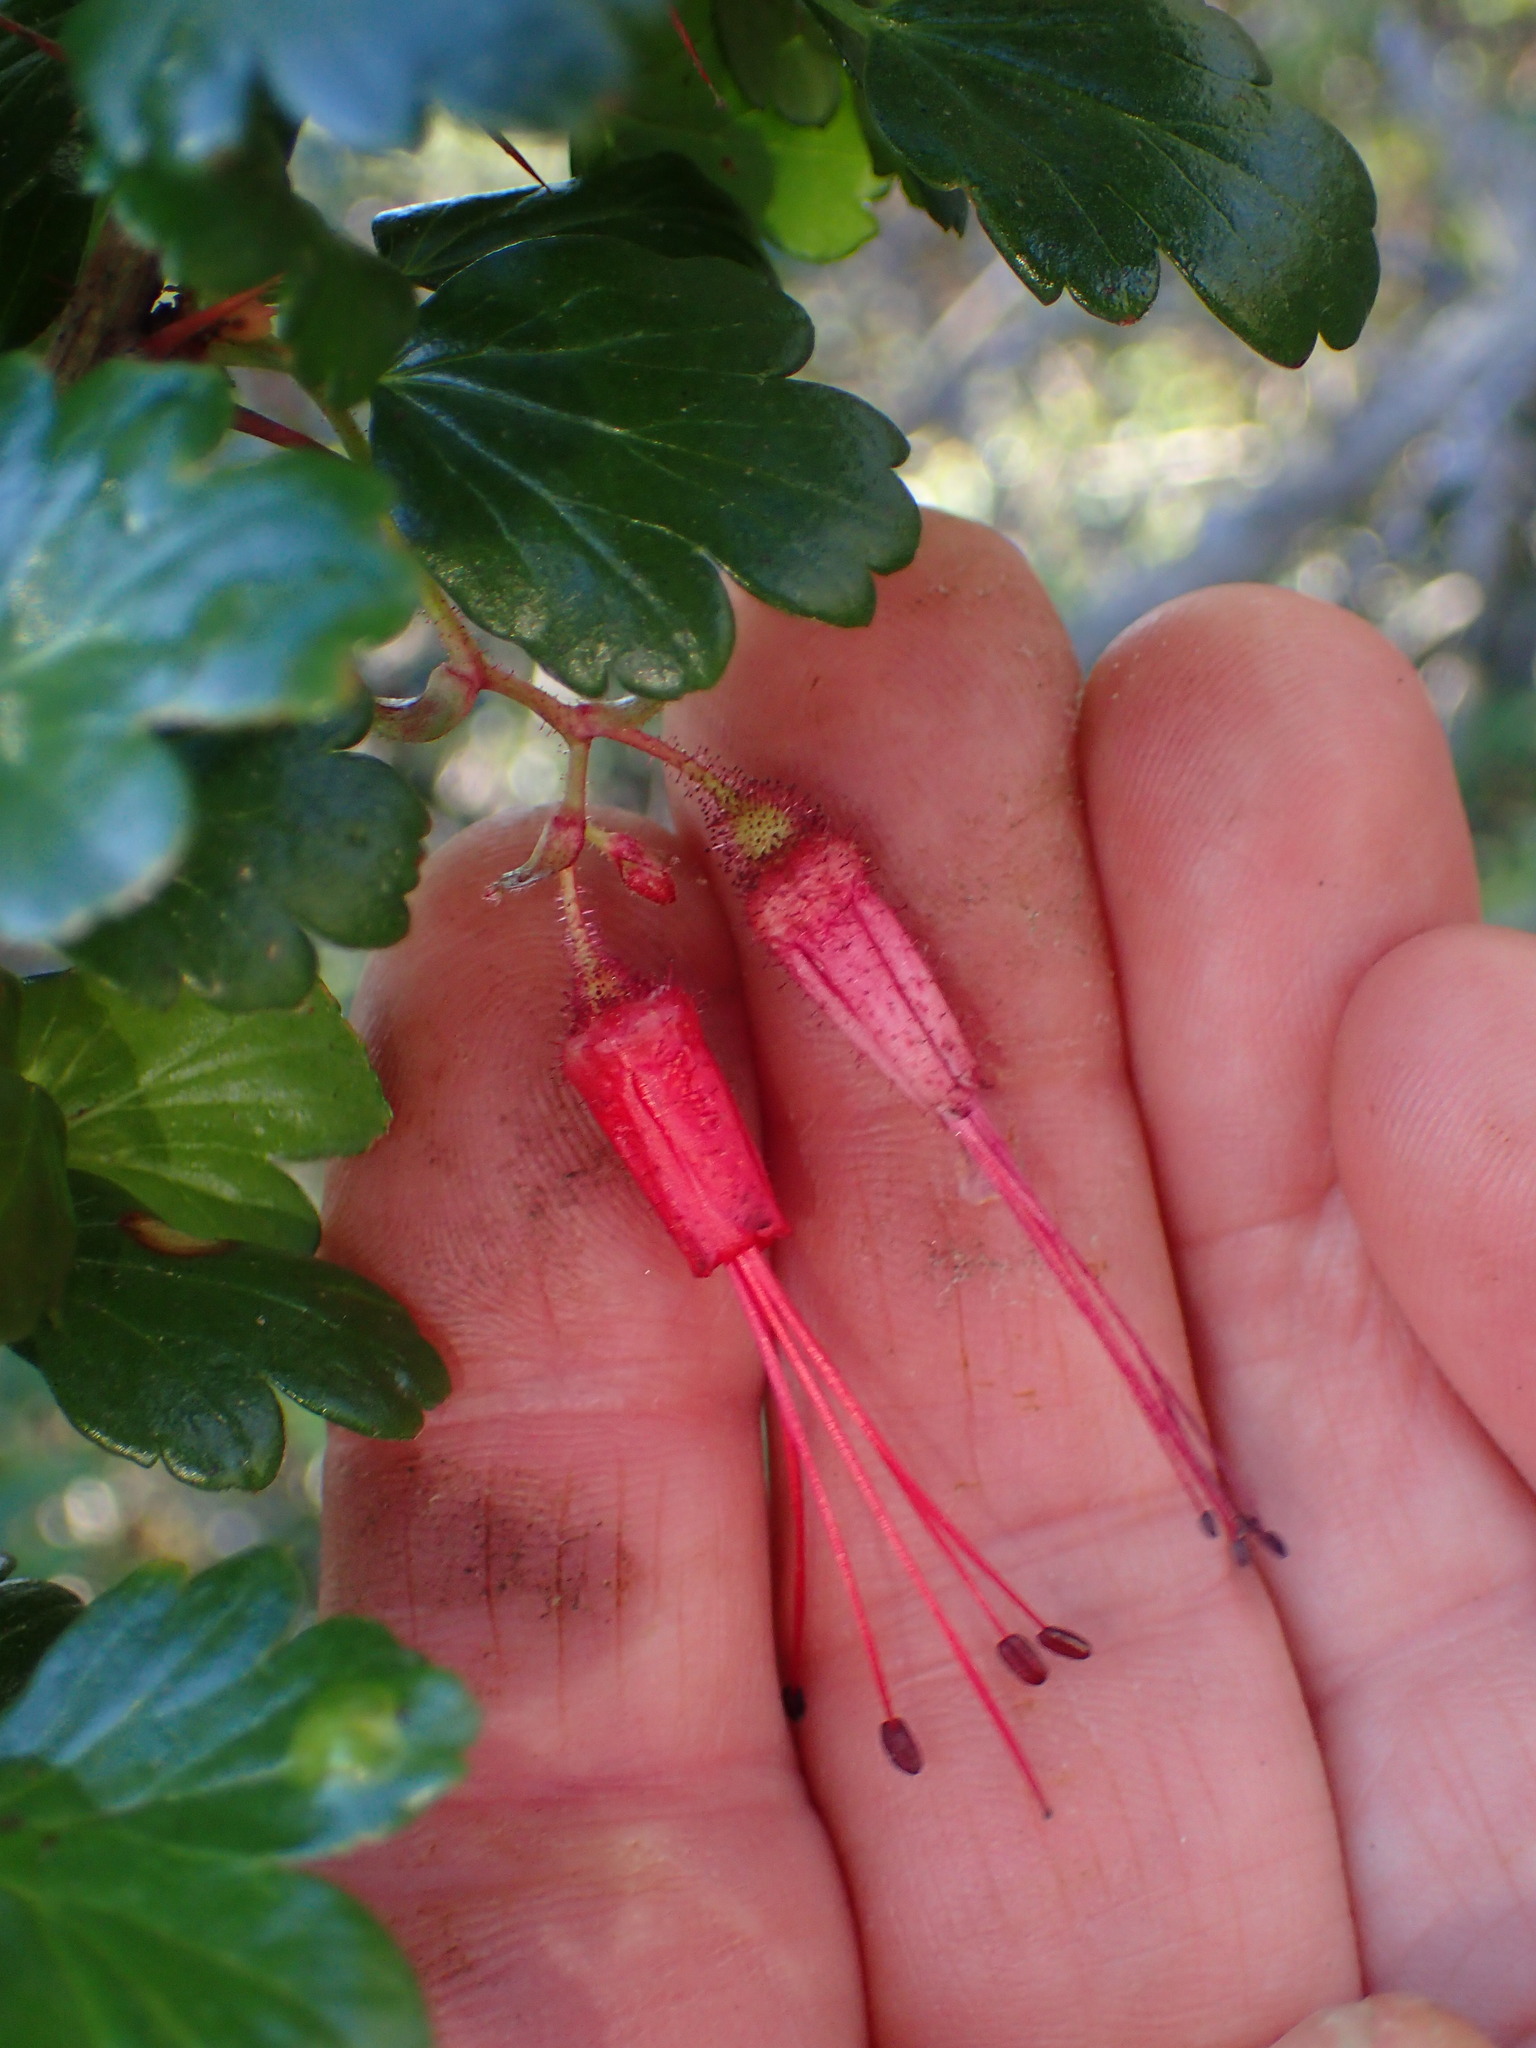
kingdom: Plantae
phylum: Tracheophyta
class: Magnoliopsida
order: Saxifragales
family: Grossulariaceae
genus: Ribes
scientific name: Ribes speciosum
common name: Fuchsia-flower gooseberry
